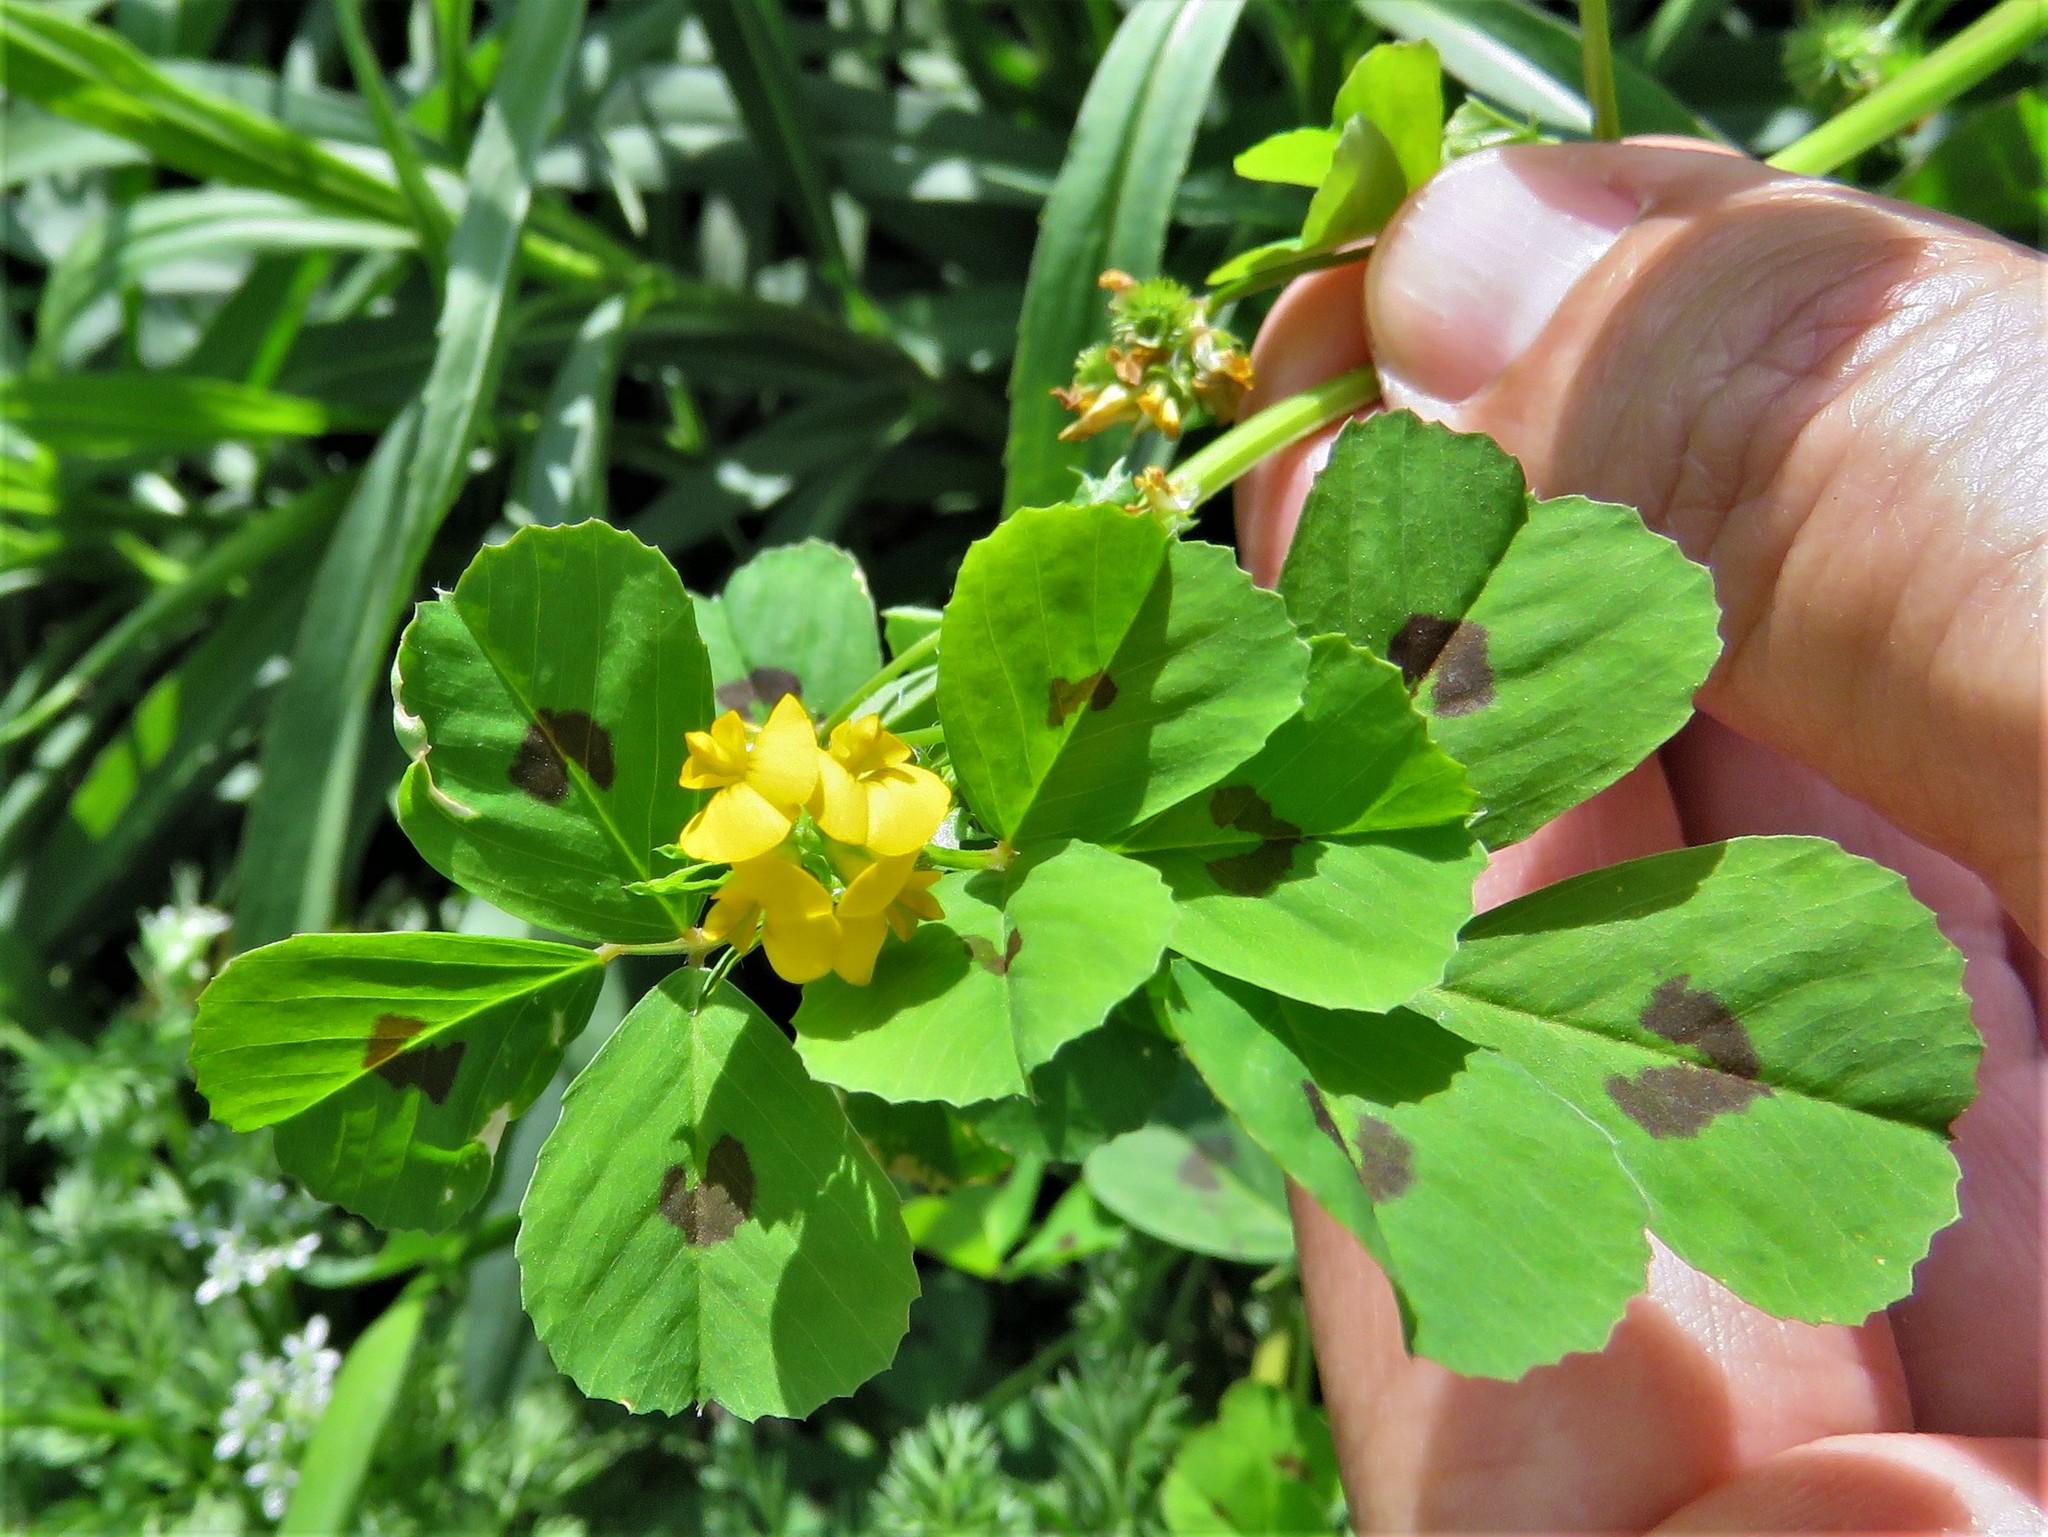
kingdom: Plantae
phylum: Tracheophyta
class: Magnoliopsida
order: Fabales
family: Fabaceae
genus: Medicago
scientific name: Medicago arabica
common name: Spotted medick
